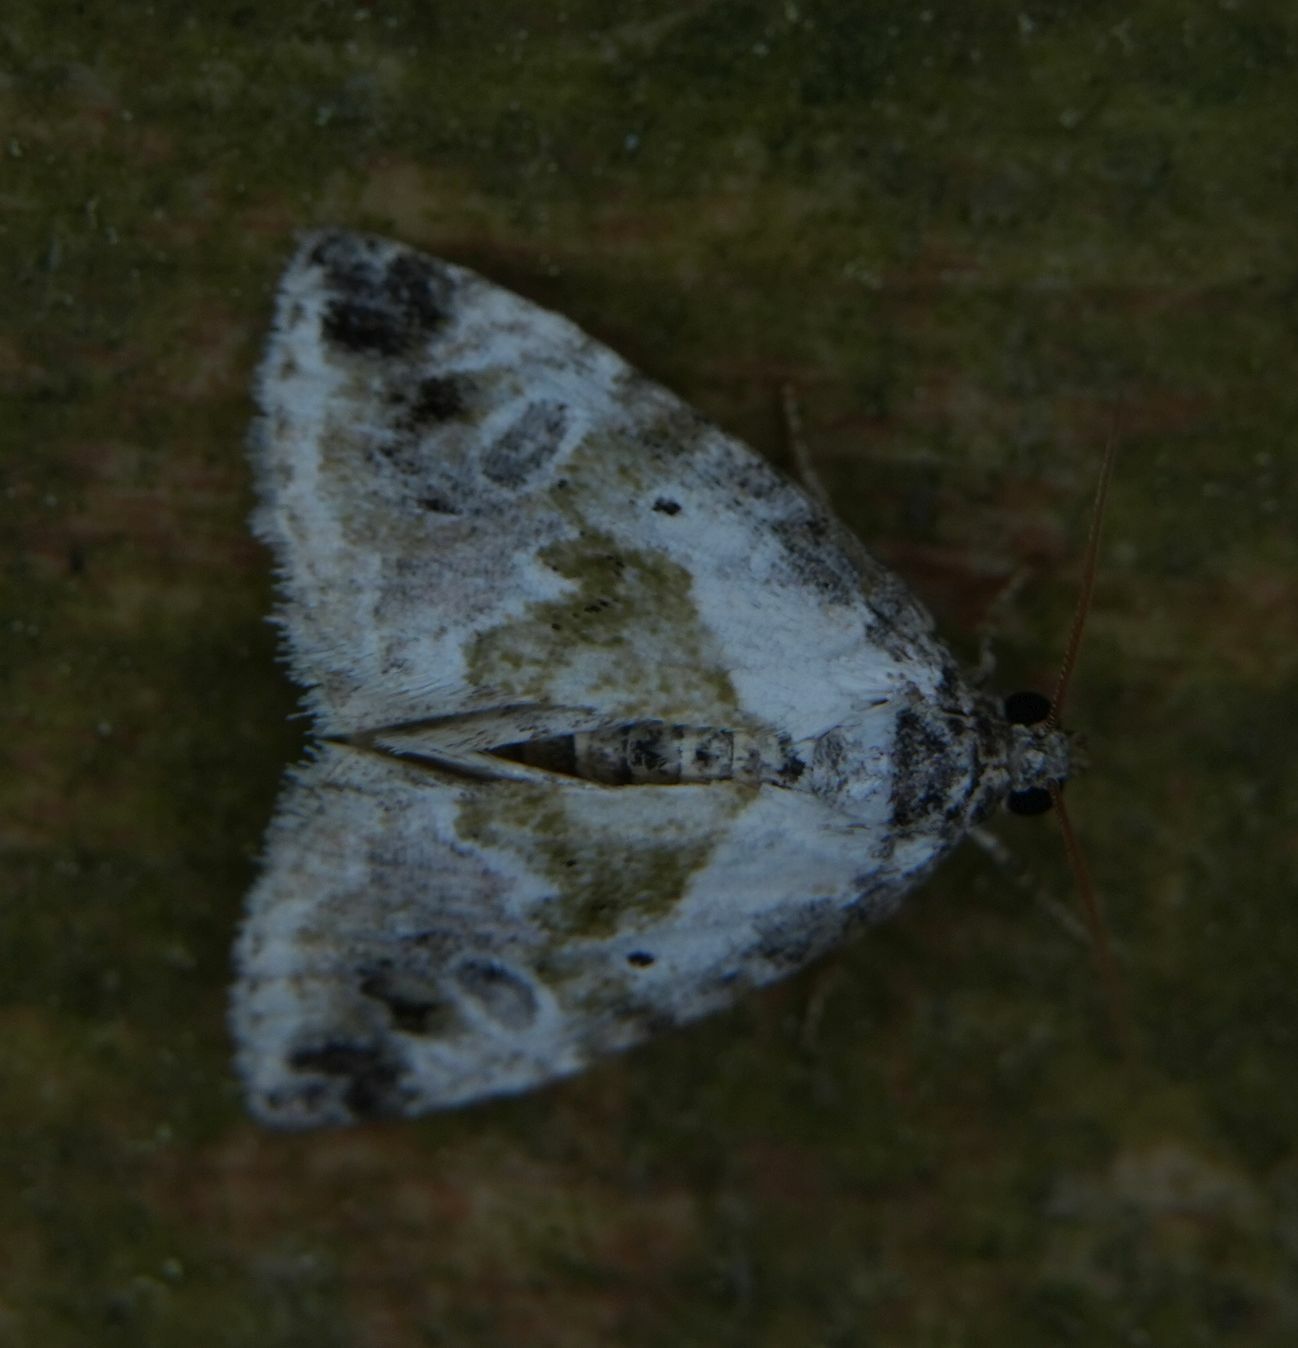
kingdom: Animalia
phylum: Arthropoda
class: Insecta
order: Lepidoptera
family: Noctuidae
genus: Maliattha
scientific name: Maliattha synochitis
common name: Black-dotted glyph
